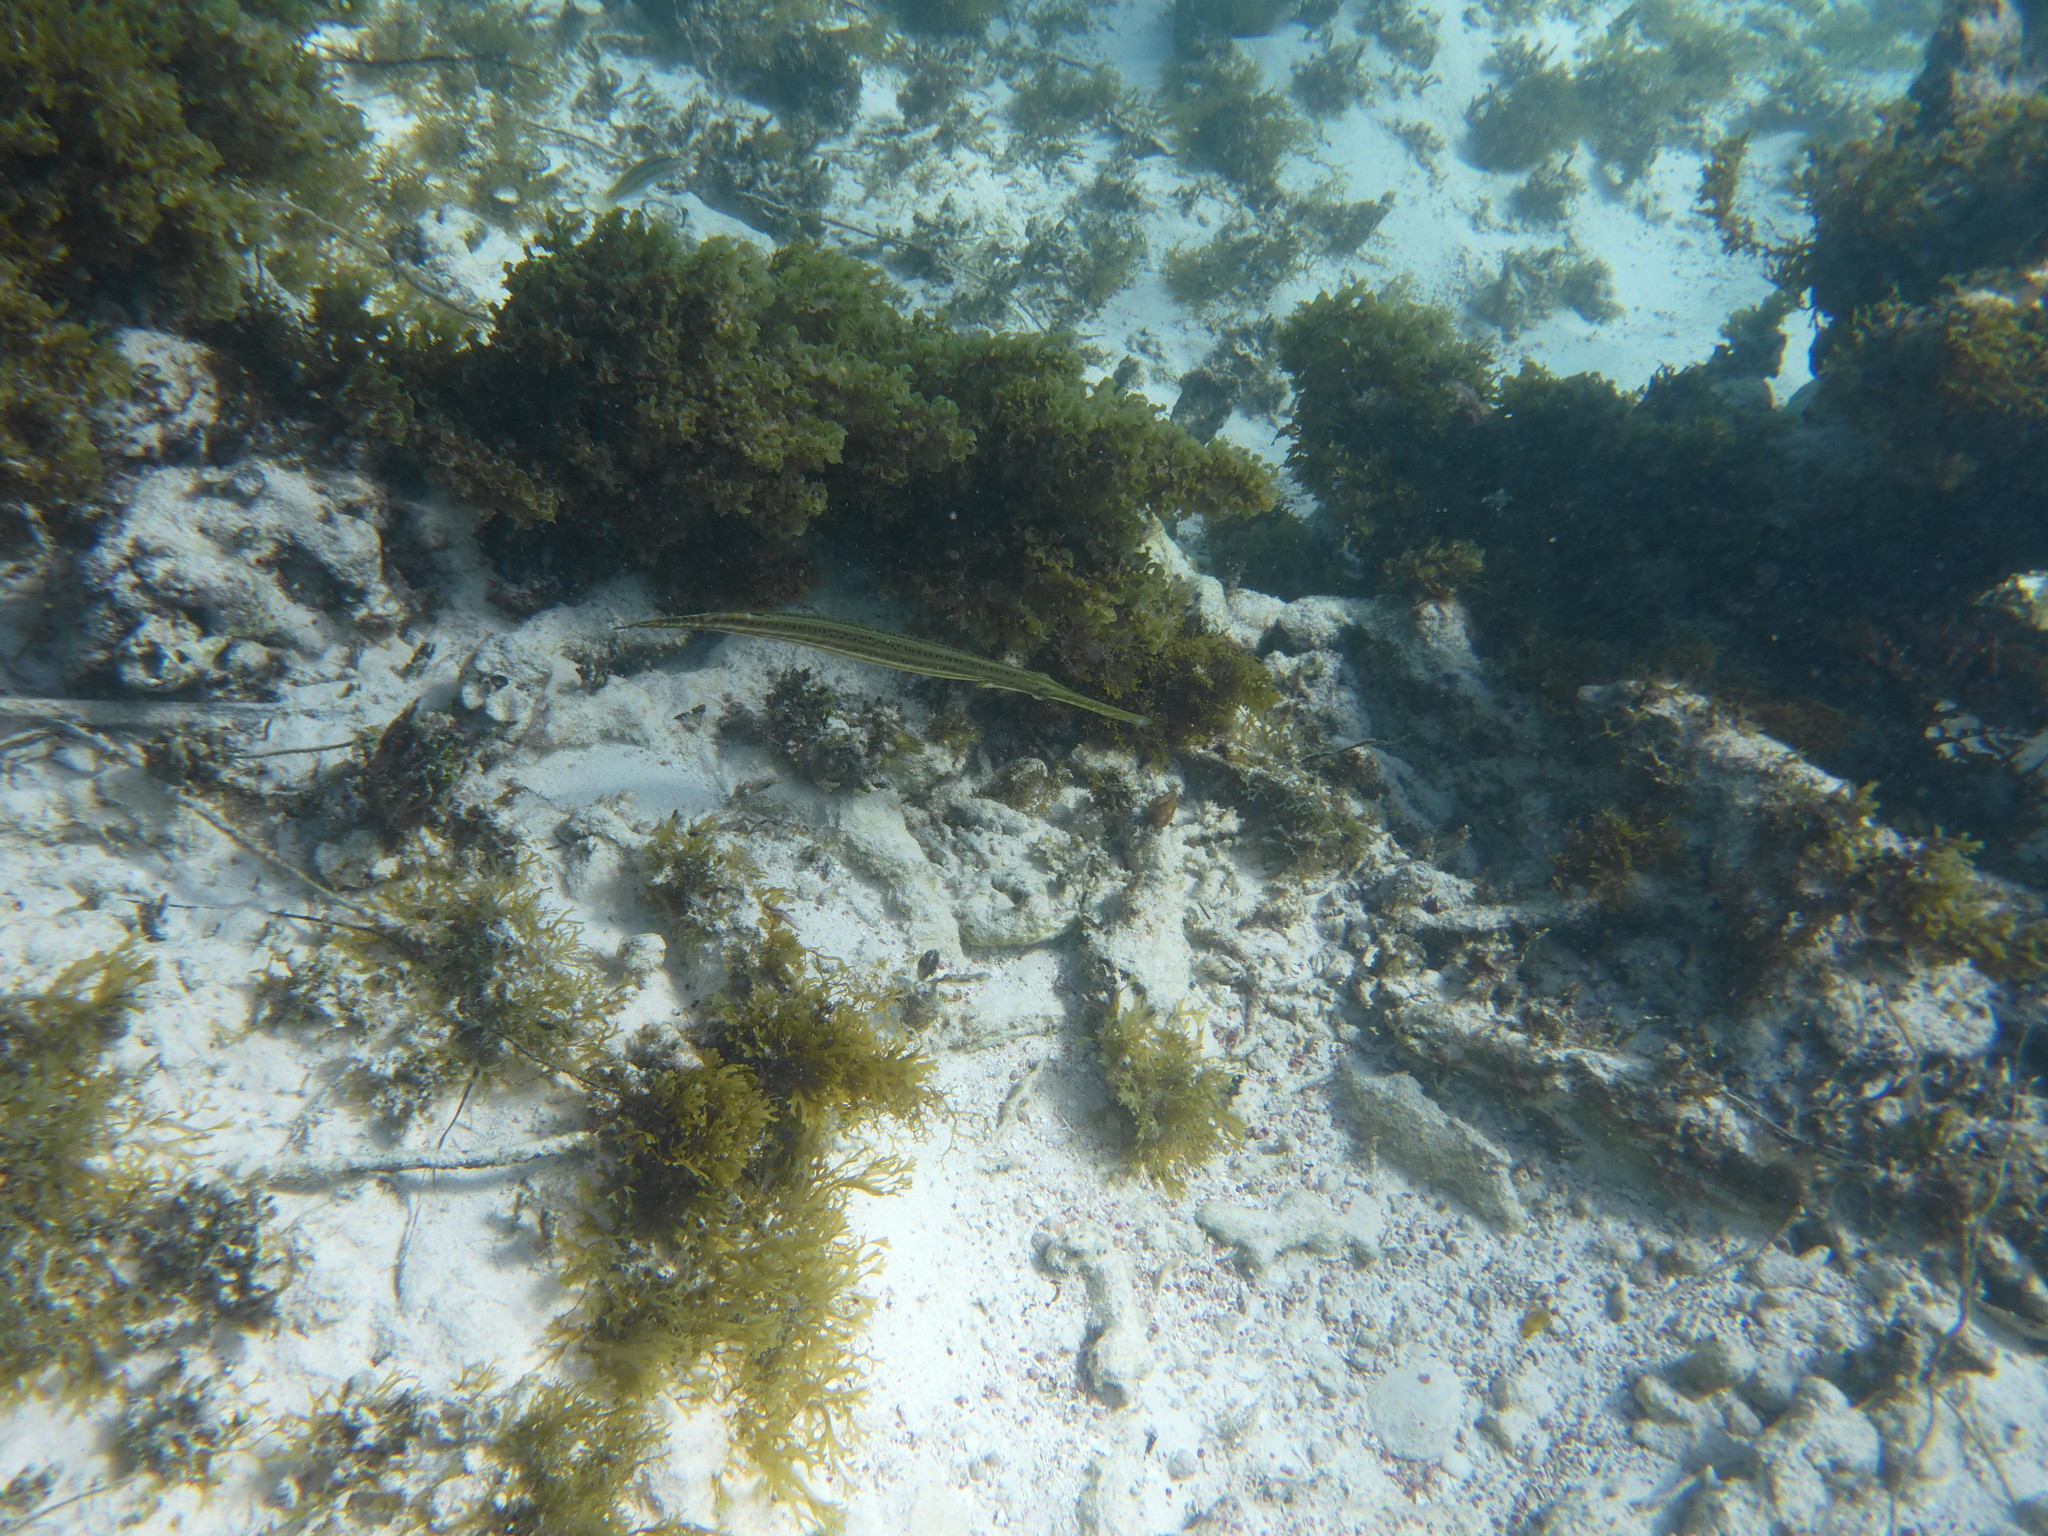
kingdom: Animalia
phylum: Chordata
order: Syngnathiformes
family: Aulostomidae
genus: Aulostomus
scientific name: Aulostomus maculatus
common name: West atlantic trumpetfish
